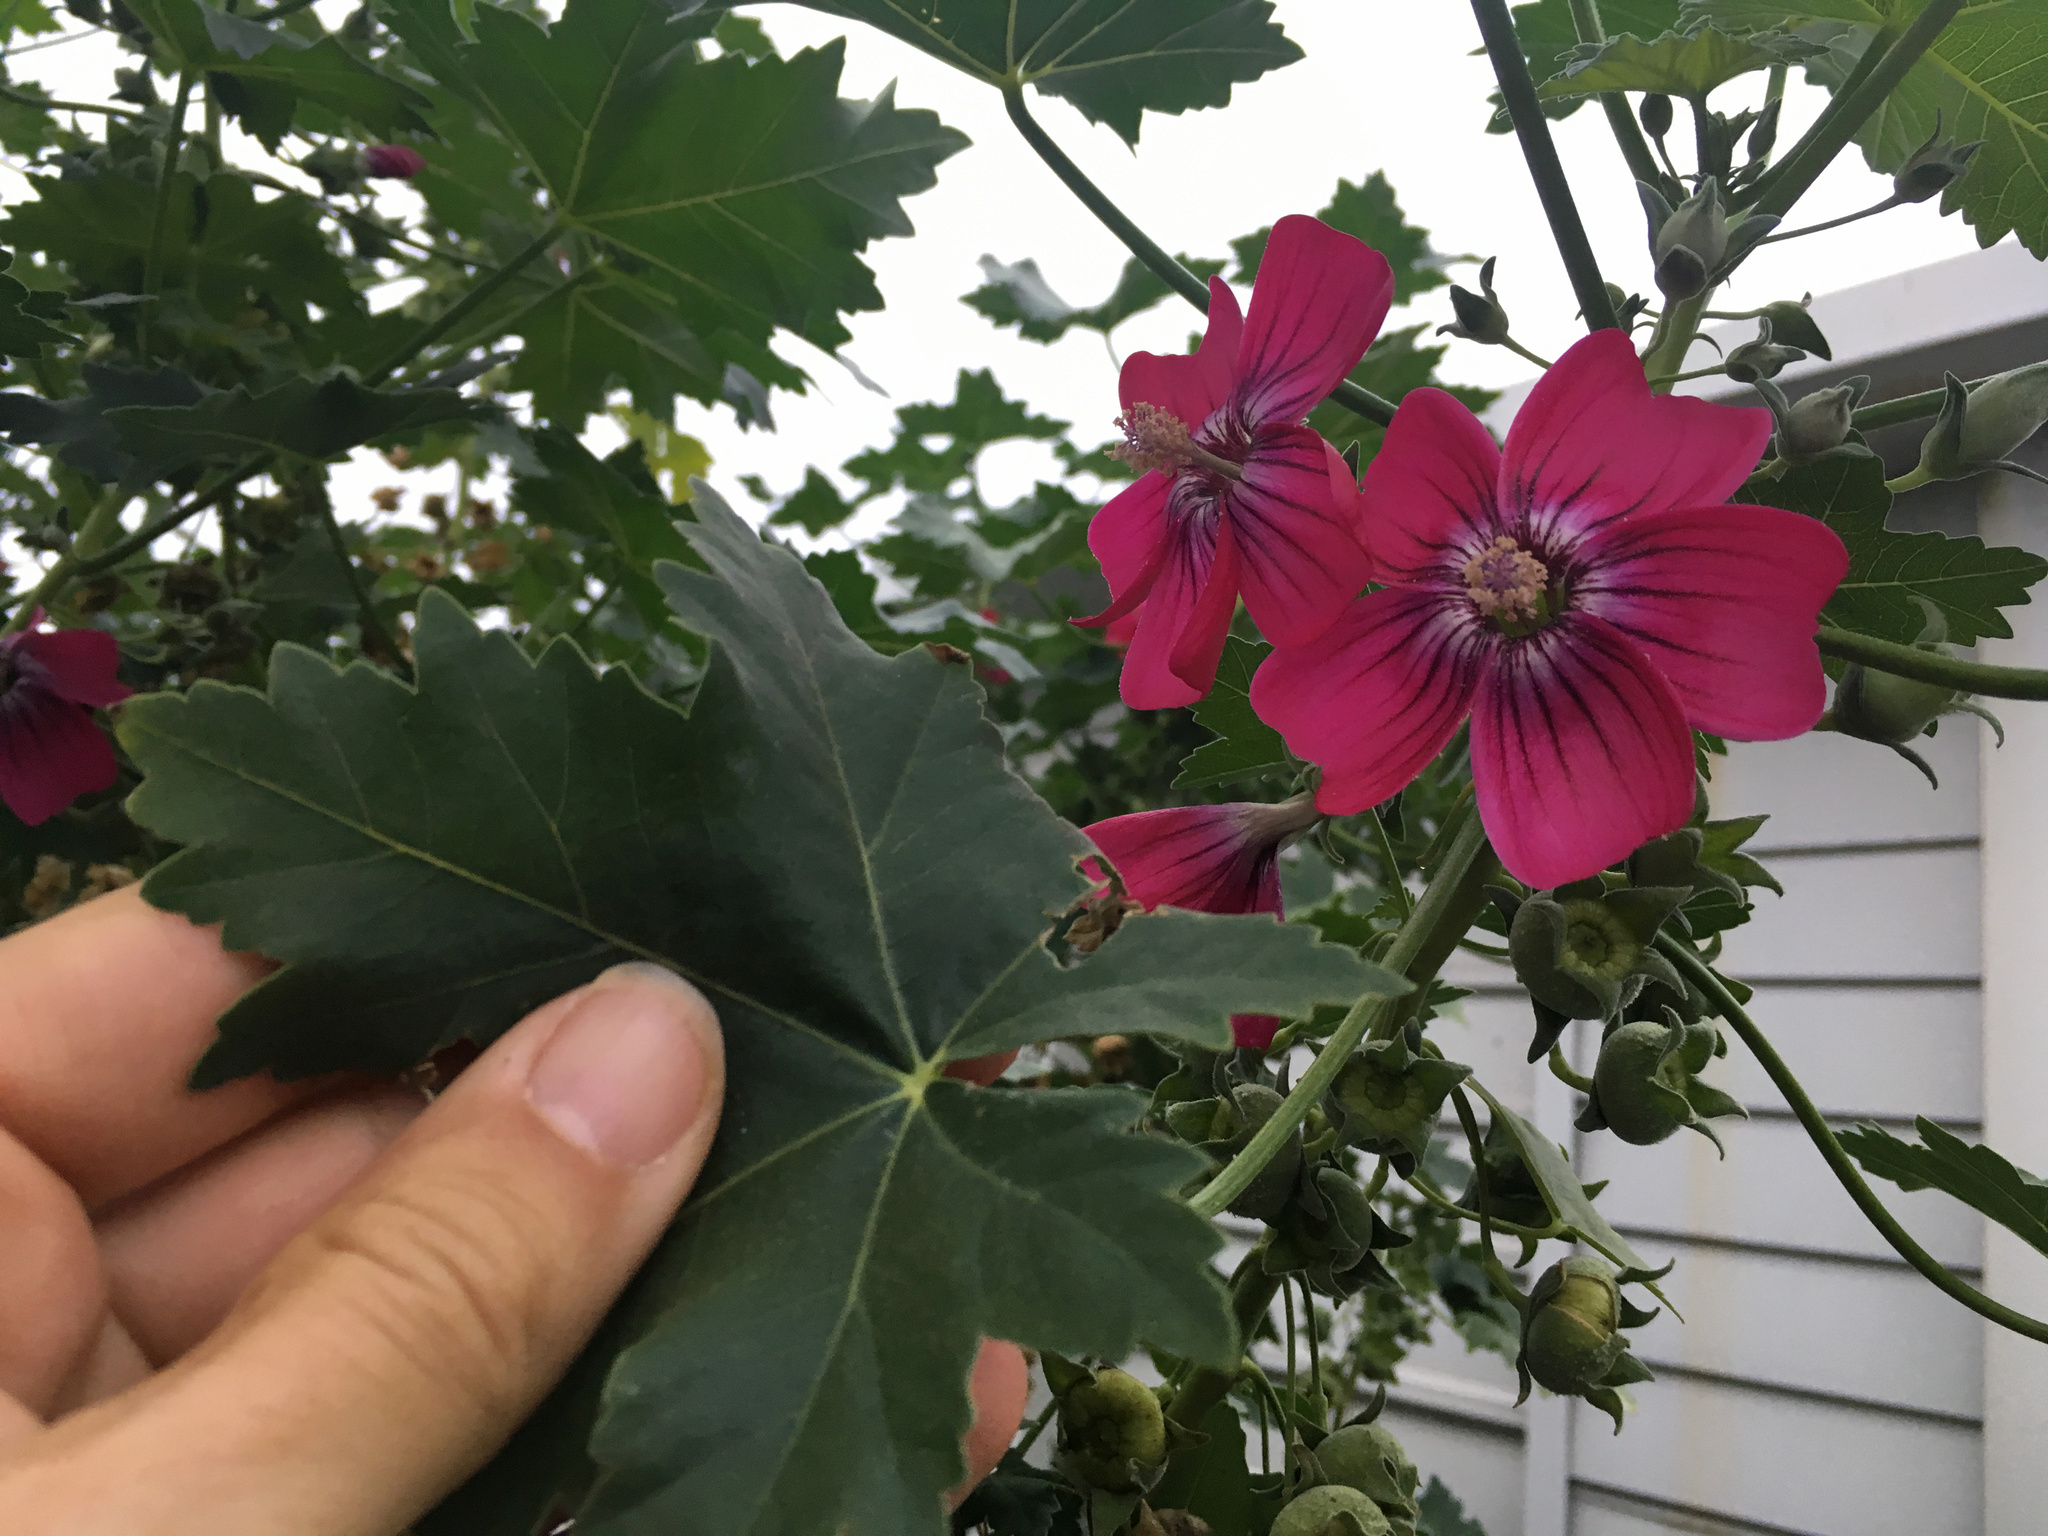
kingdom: Plantae
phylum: Tracheophyta
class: Magnoliopsida
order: Malvales
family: Malvaceae
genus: Malva
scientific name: Malva assurgentiflora
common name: Island mallow
